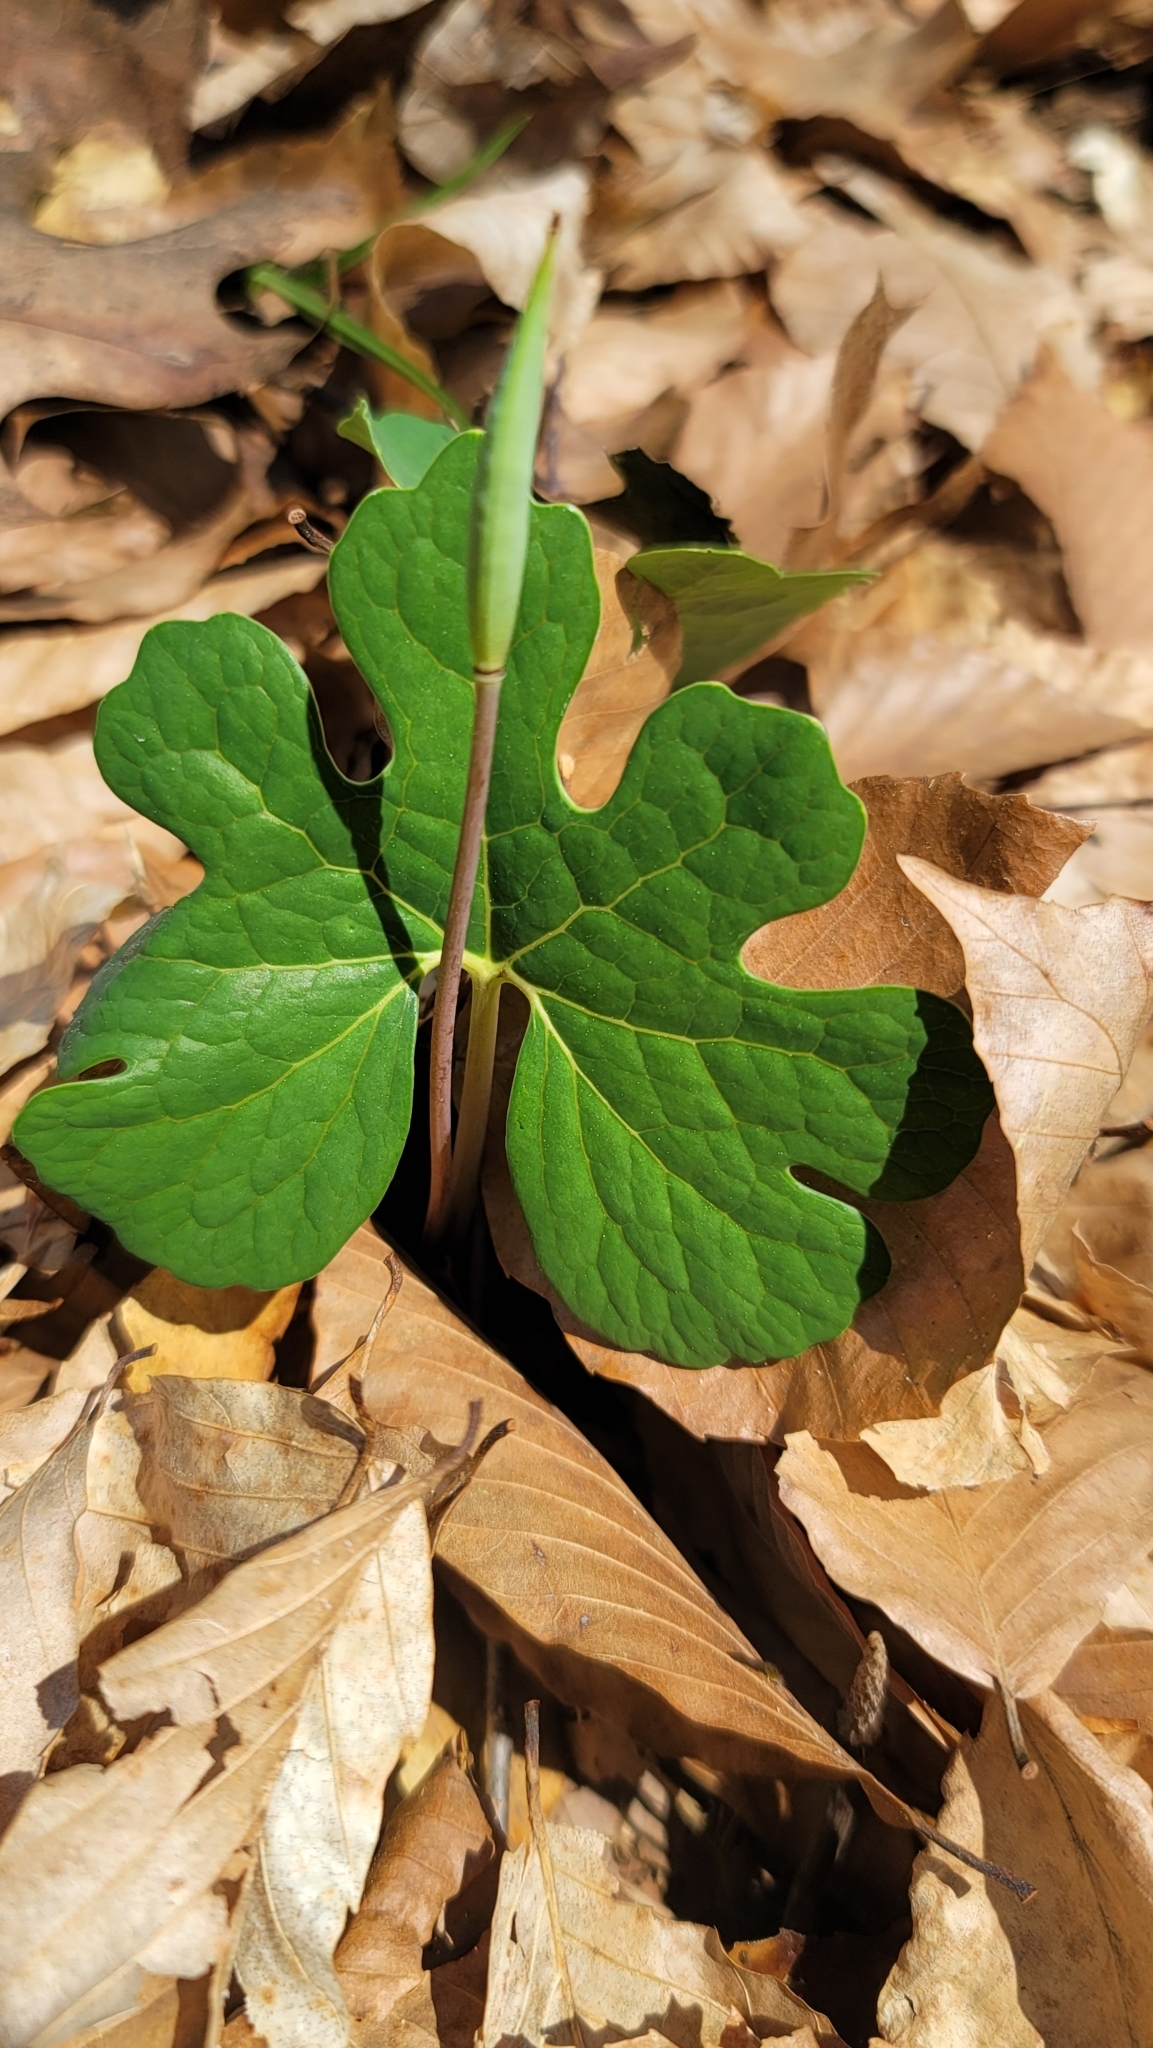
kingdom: Plantae
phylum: Tracheophyta
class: Magnoliopsida
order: Ranunculales
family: Papaveraceae
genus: Sanguinaria
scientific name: Sanguinaria canadensis
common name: Bloodroot
